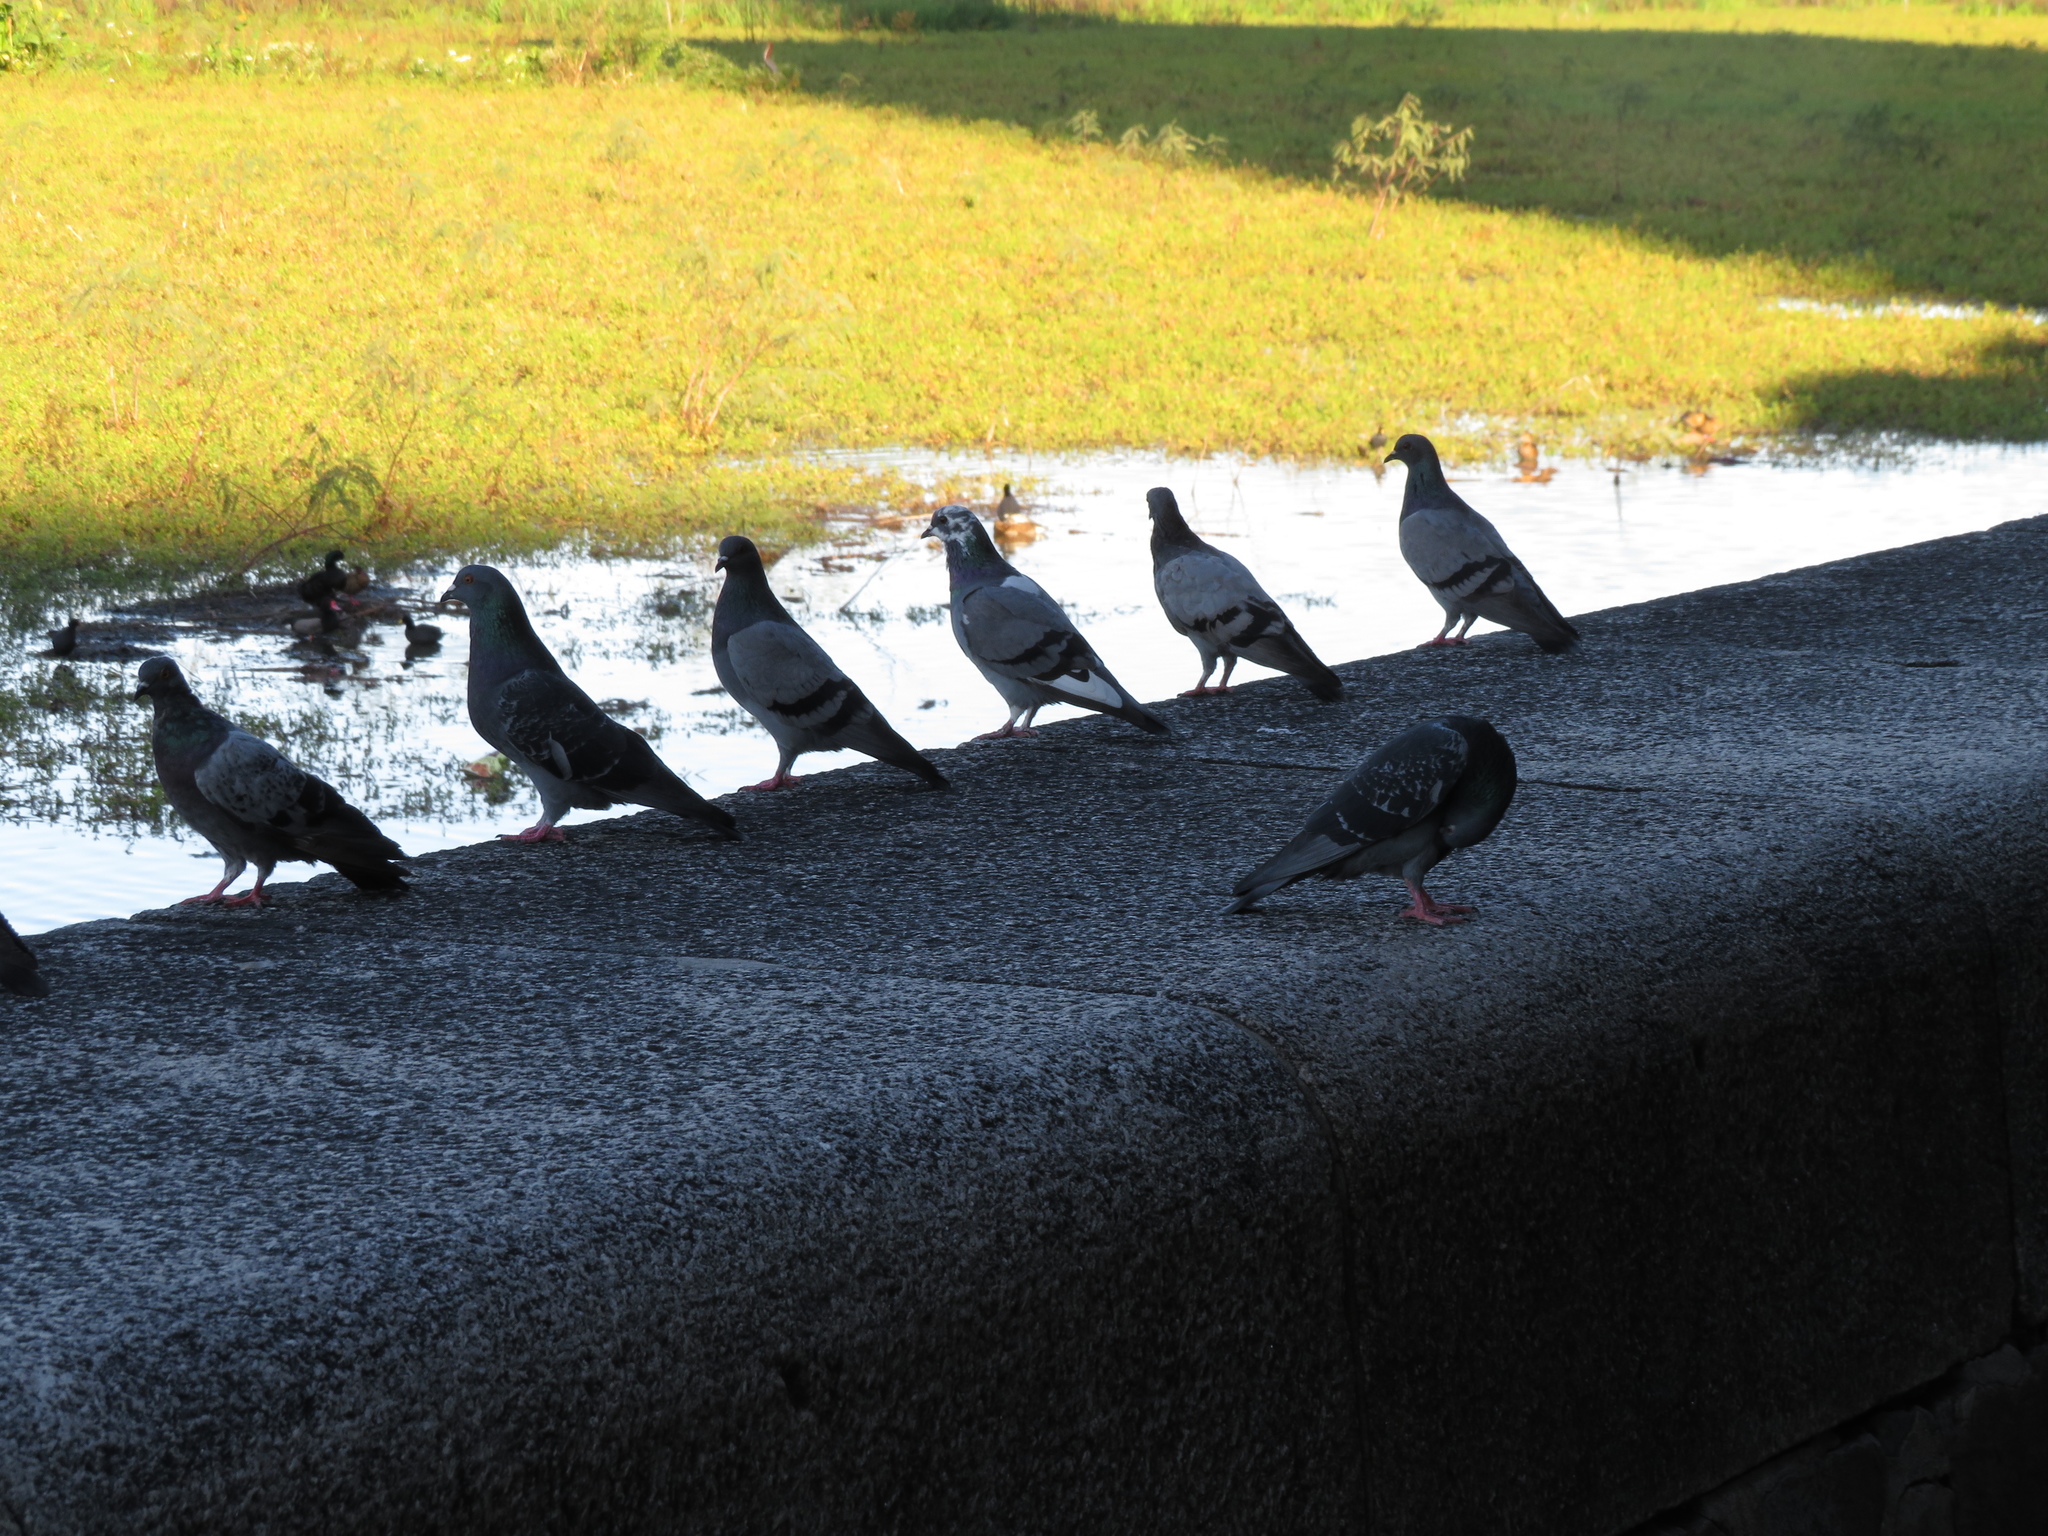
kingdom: Animalia
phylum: Chordata
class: Aves
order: Columbiformes
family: Columbidae
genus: Columba
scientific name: Columba livia
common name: Rock pigeon
